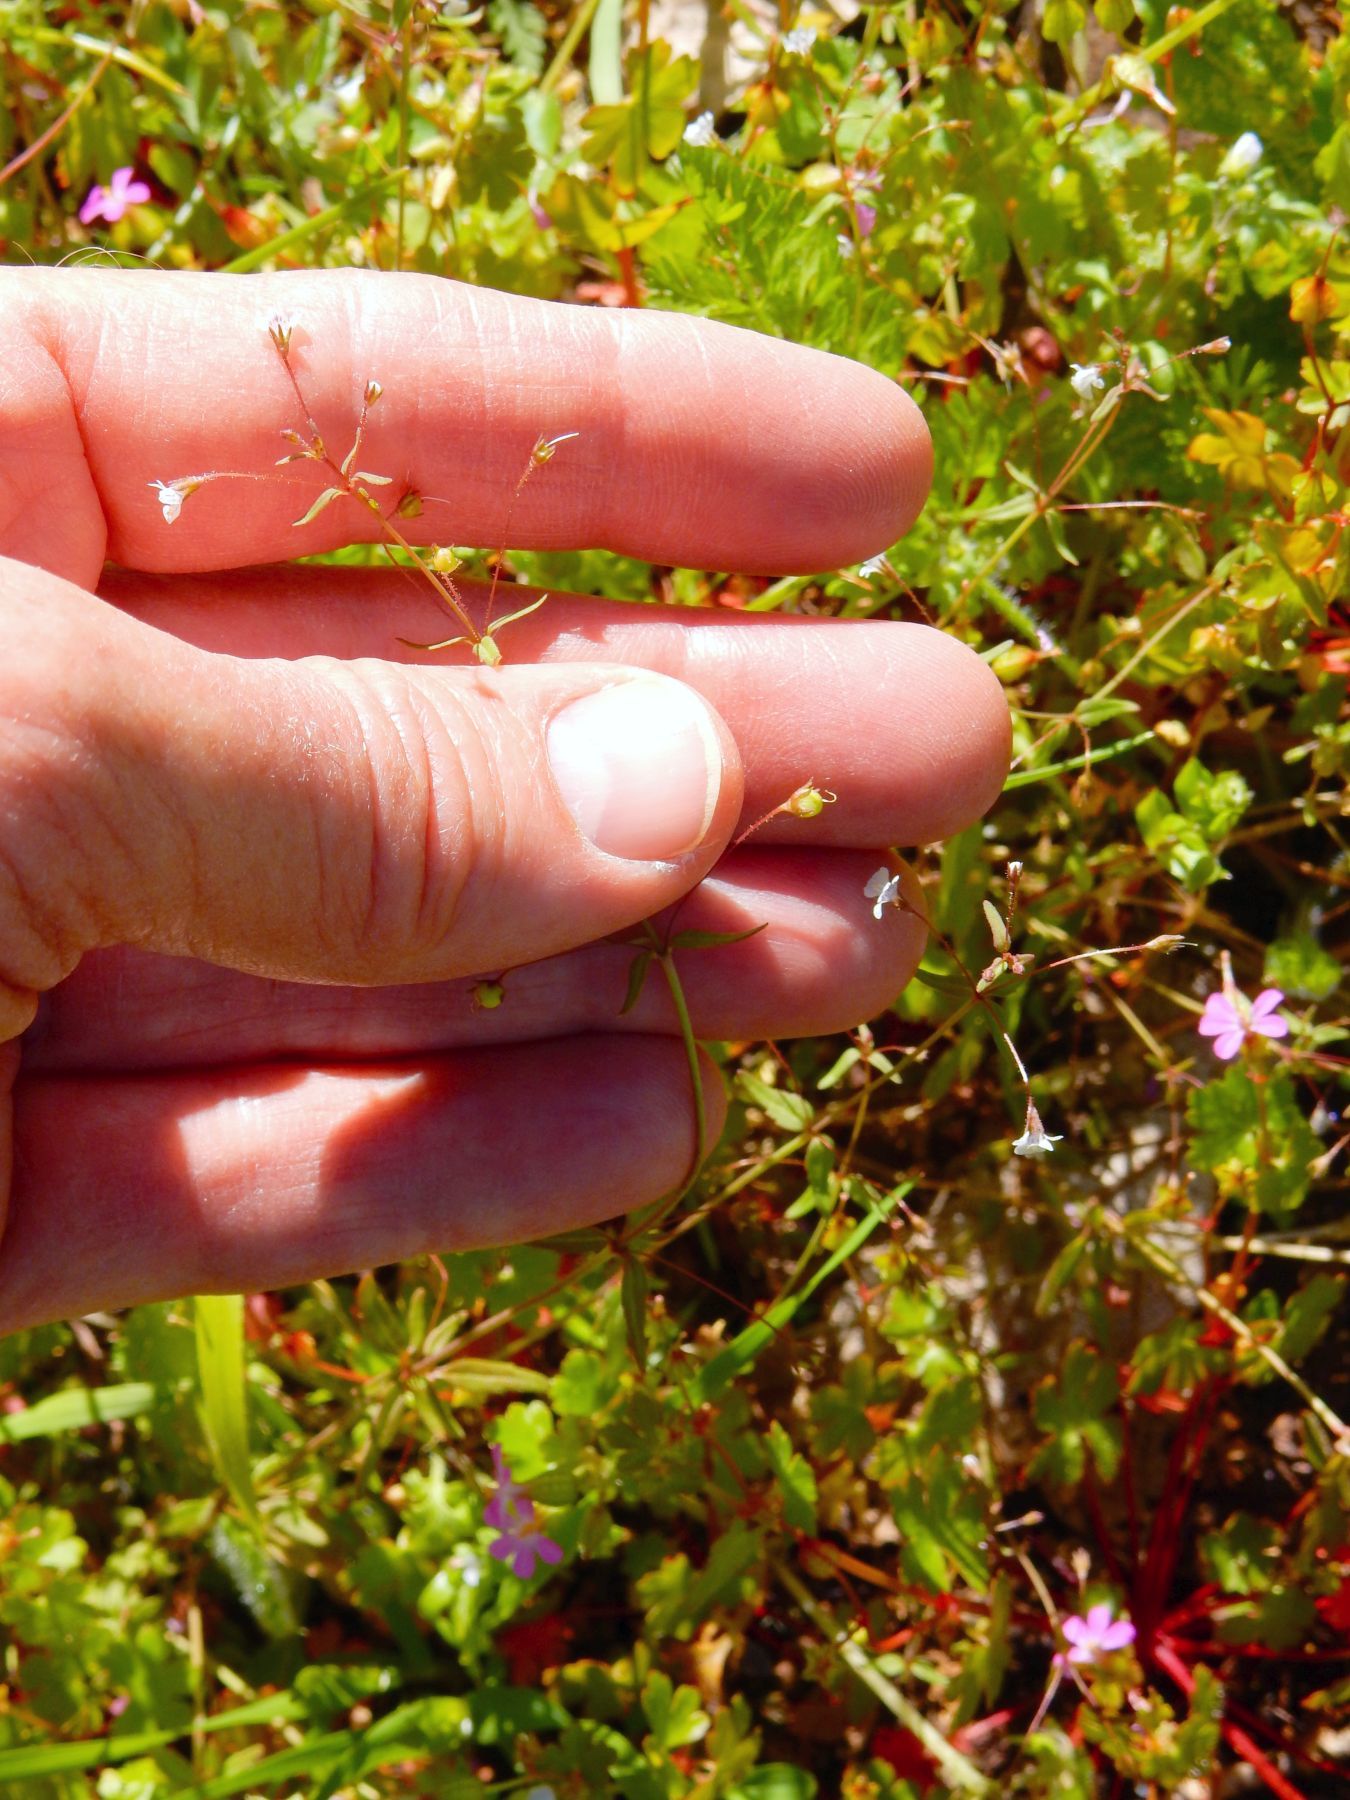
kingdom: Plantae
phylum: Tracheophyta
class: Magnoliopsida
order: Lamiales
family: Plantaginaceae
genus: Tonella
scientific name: Tonella tenella
